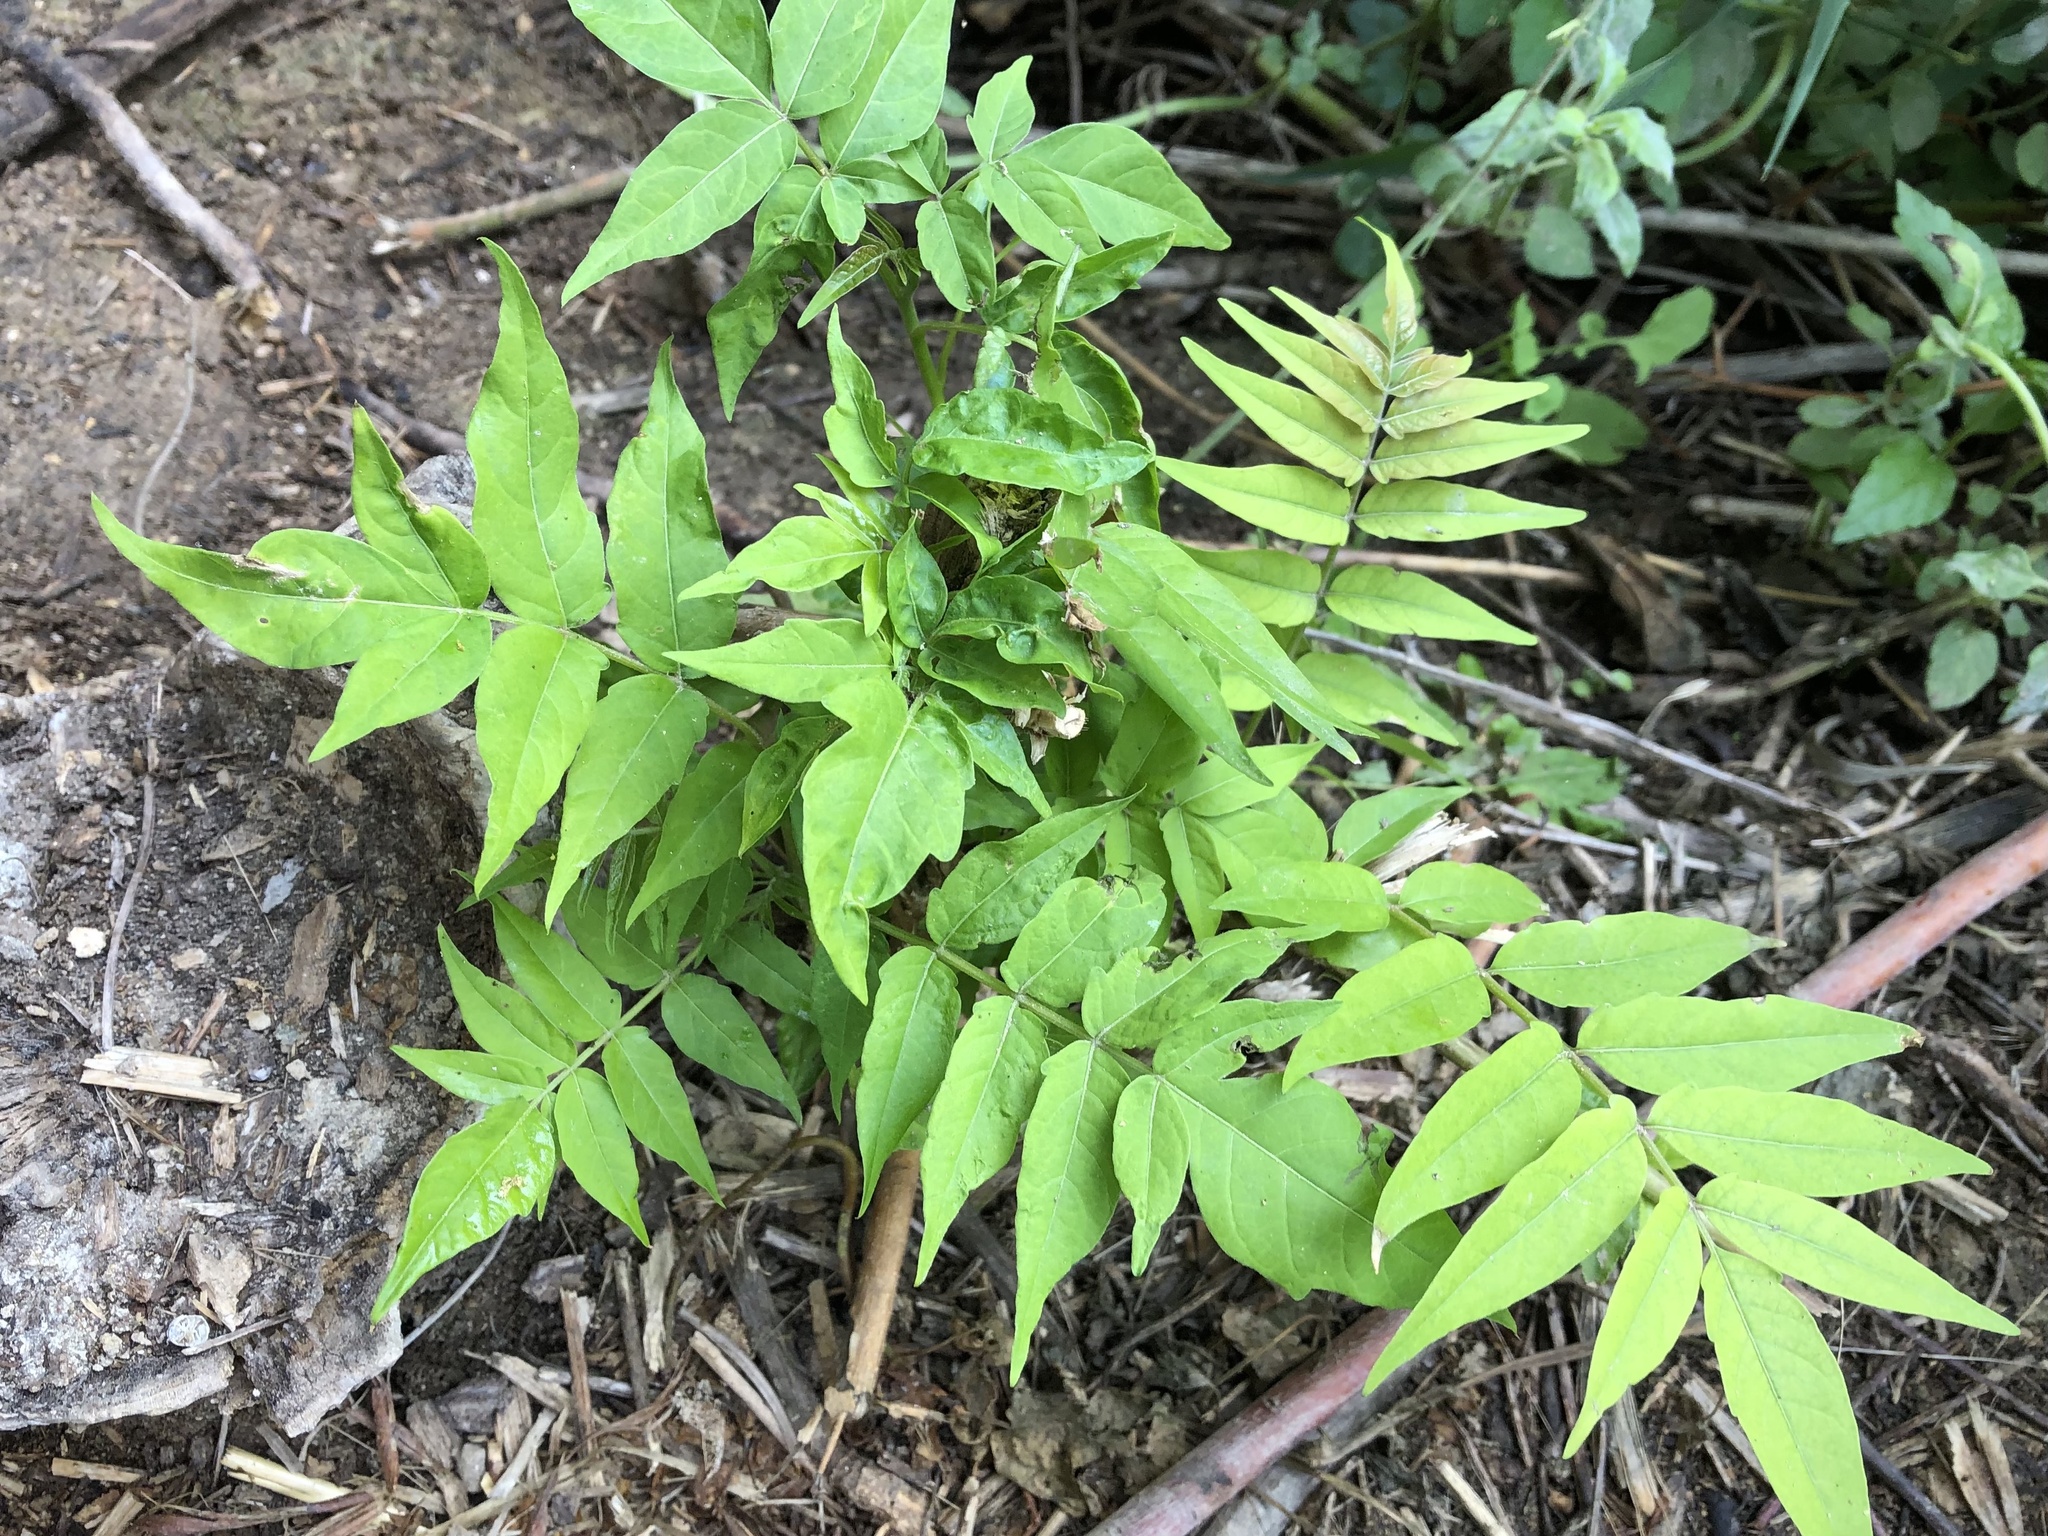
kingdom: Plantae
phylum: Tracheophyta
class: Magnoliopsida
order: Sapindales
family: Simaroubaceae
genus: Ailanthus
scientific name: Ailanthus altissima
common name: Tree-of-heaven
